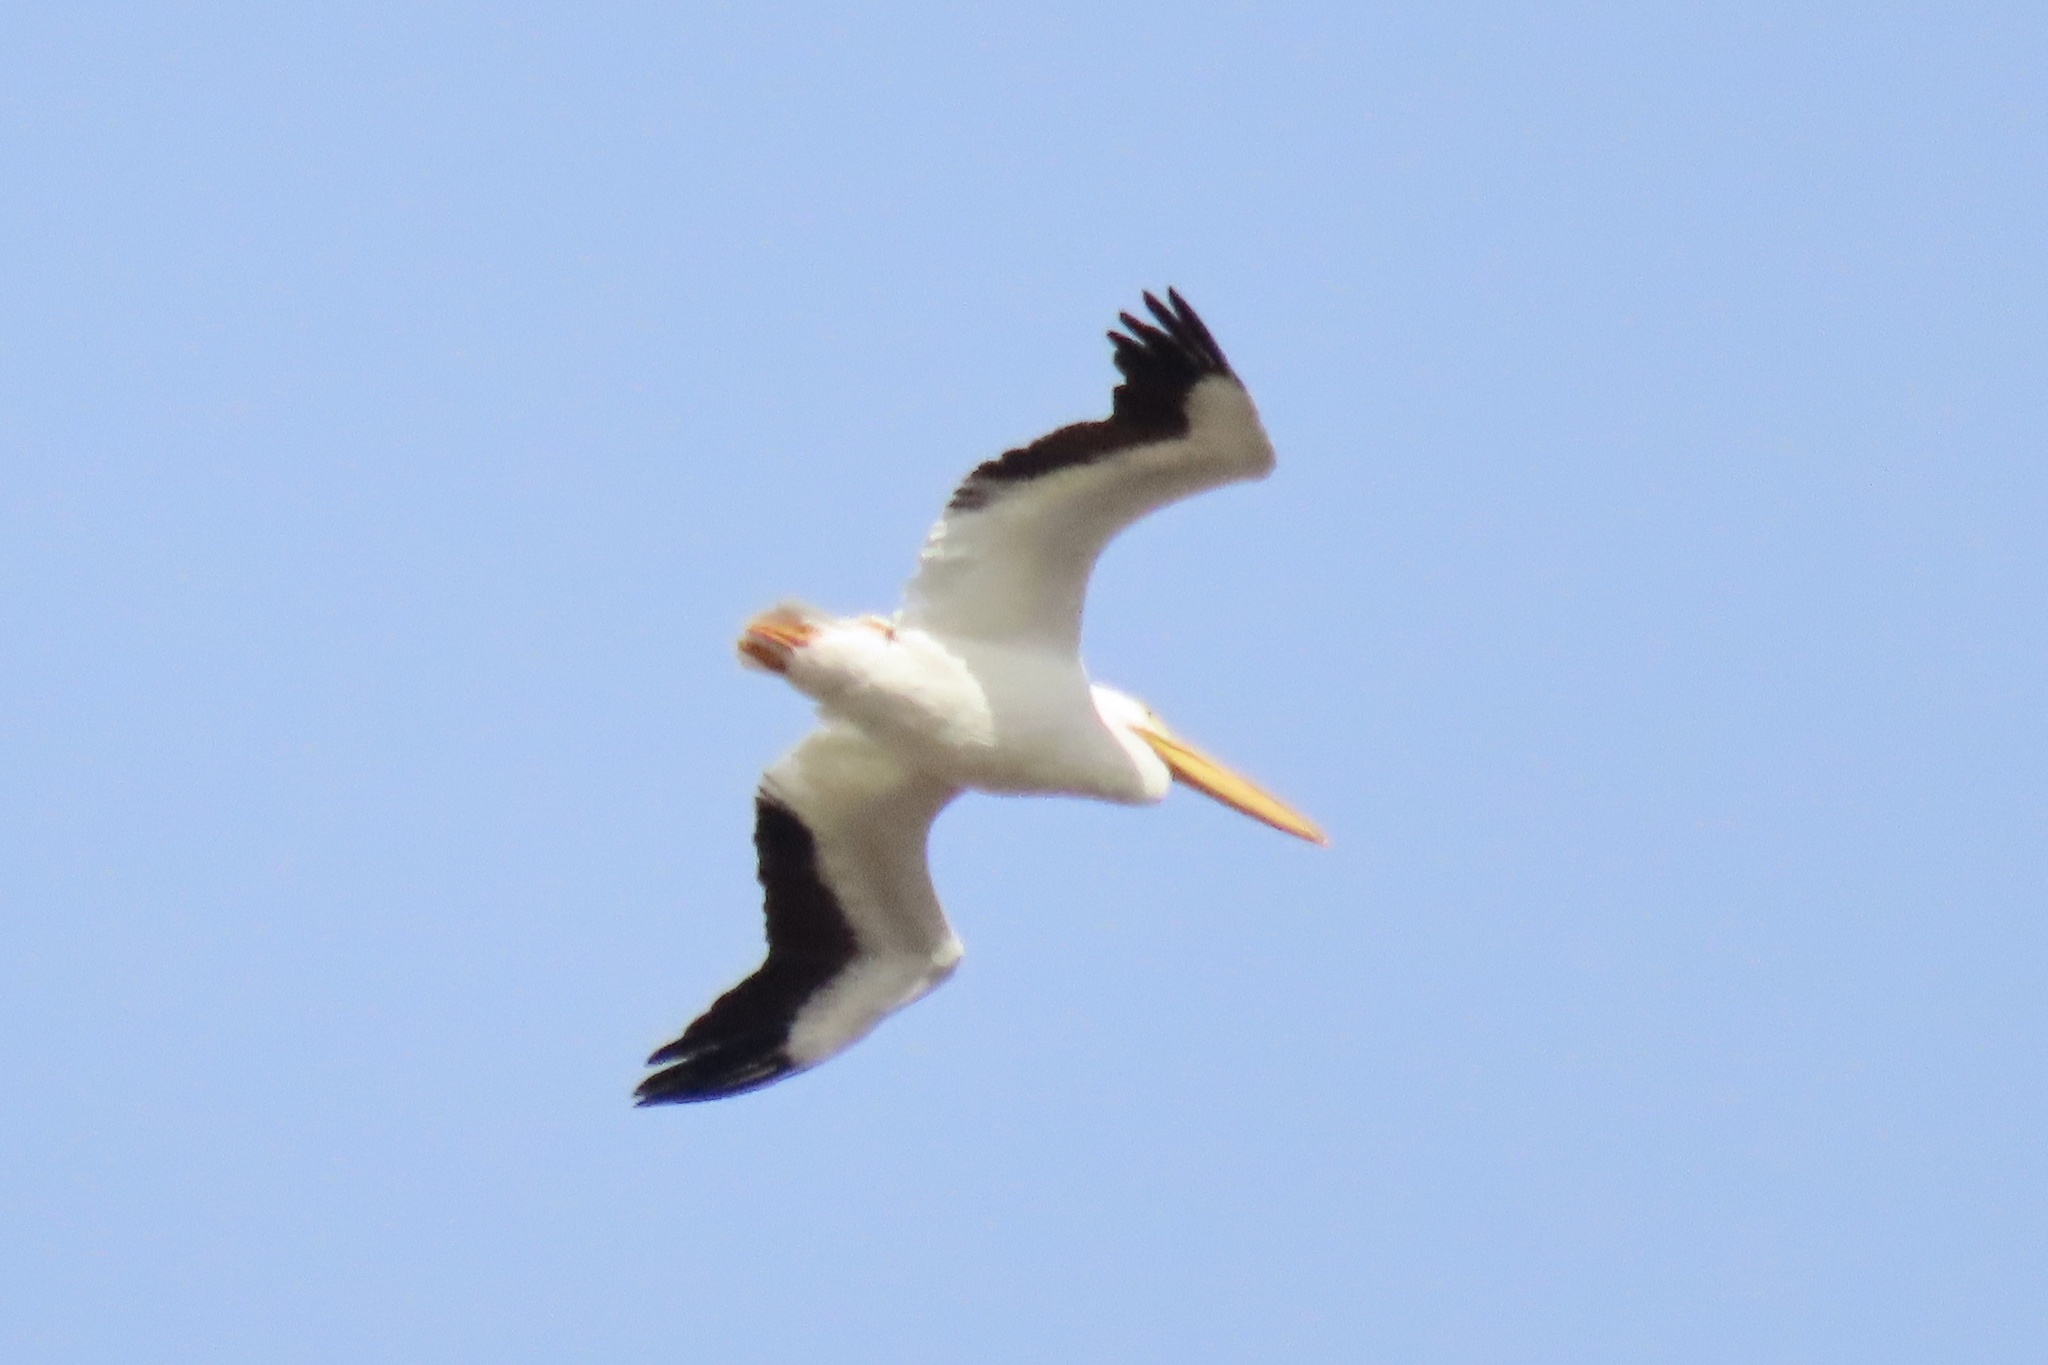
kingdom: Animalia
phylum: Chordata
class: Aves
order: Pelecaniformes
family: Pelecanidae
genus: Pelecanus
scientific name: Pelecanus erythrorhynchos
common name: American white pelican
